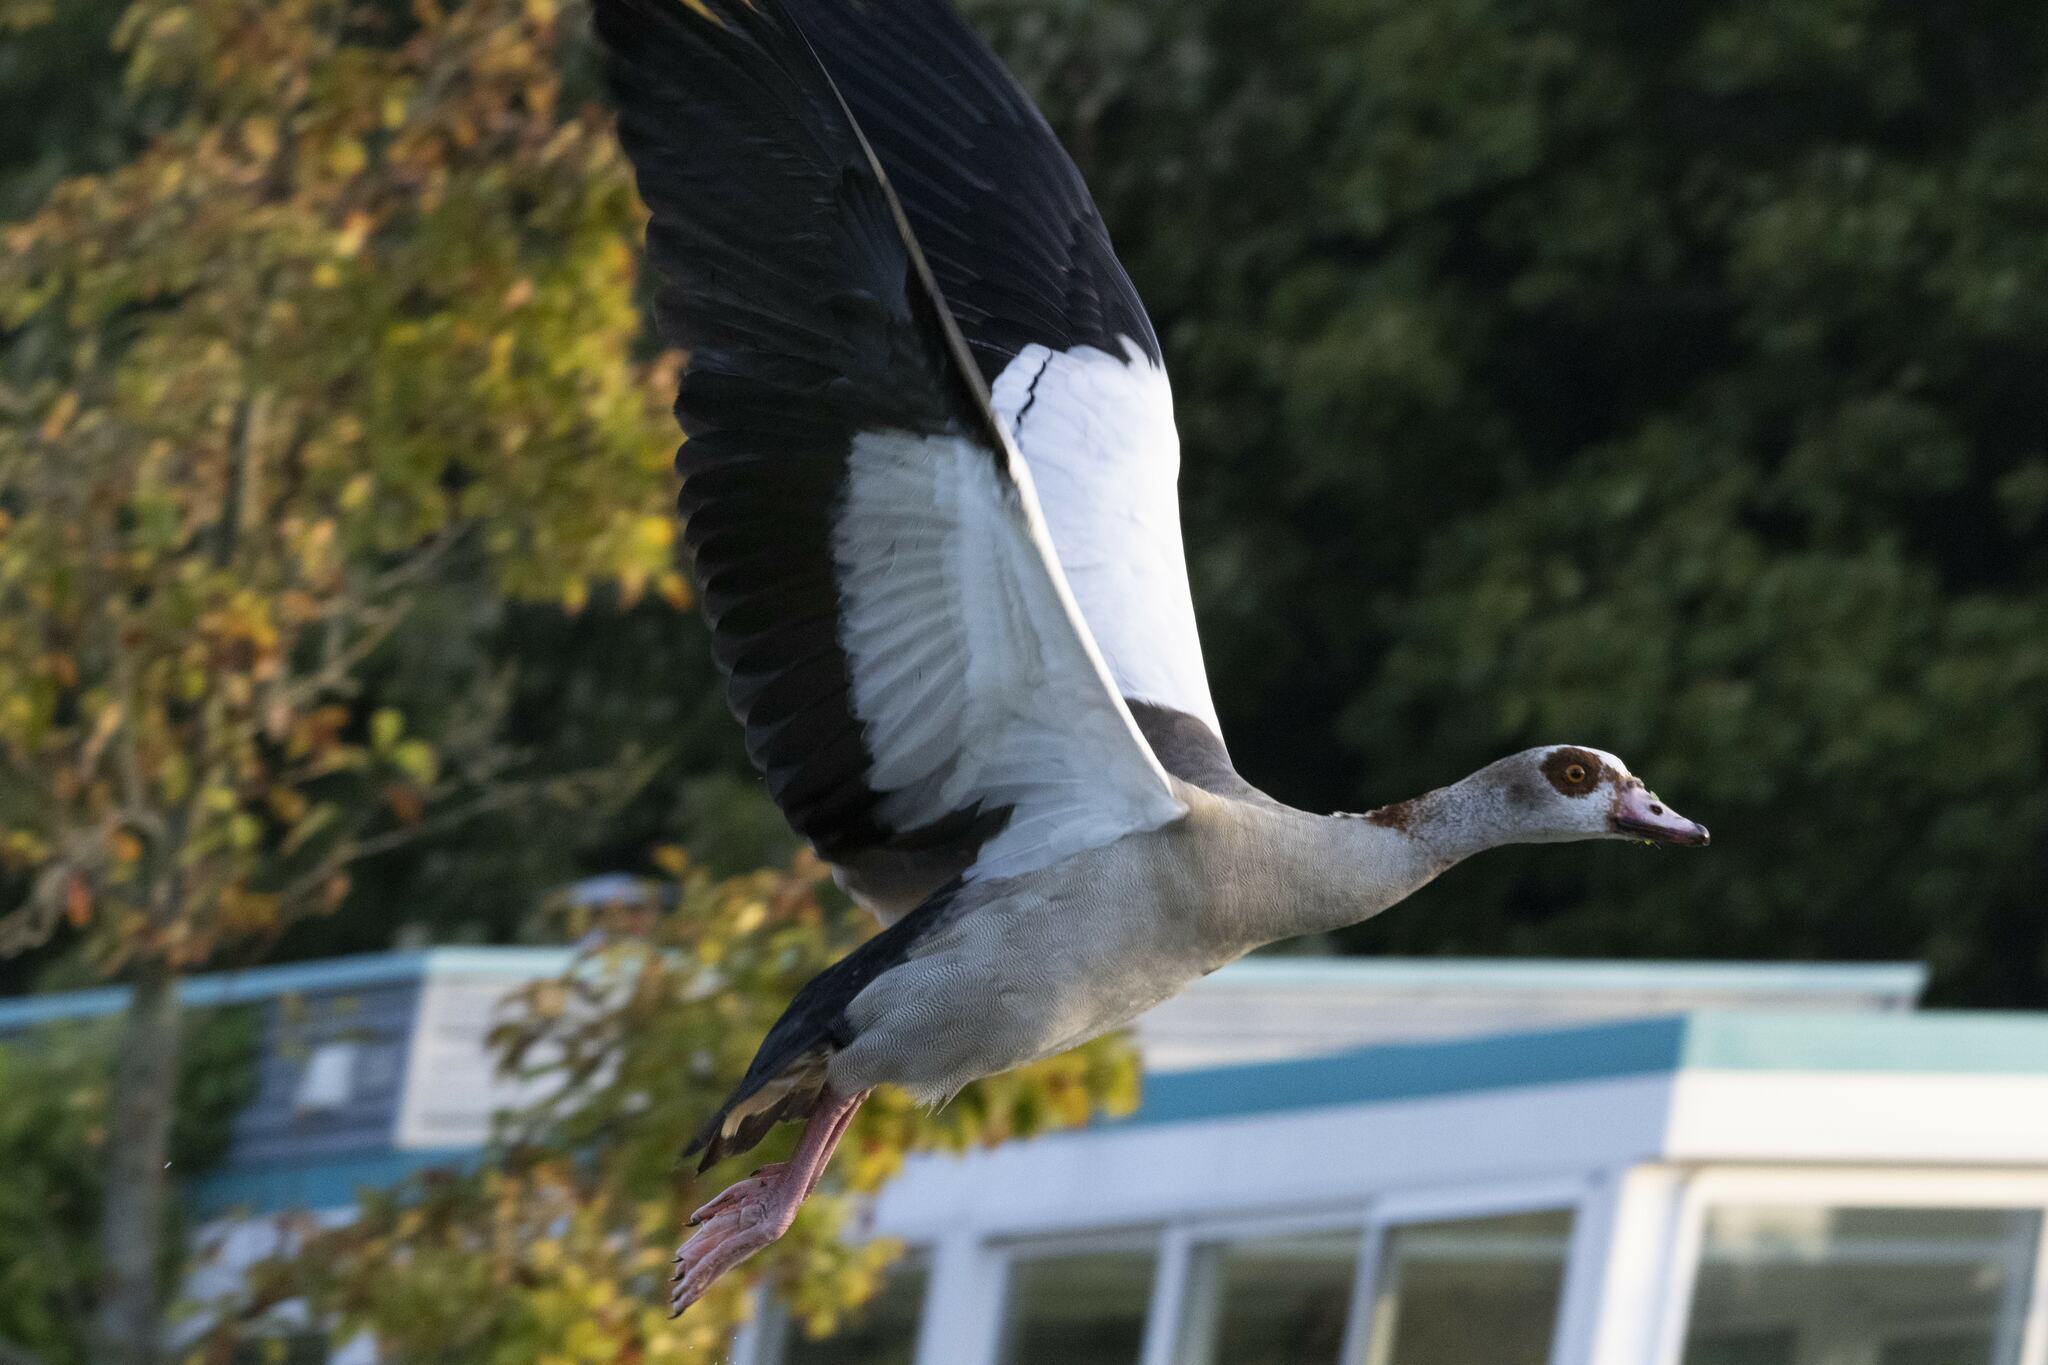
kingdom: Animalia
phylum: Chordata
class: Aves
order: Anseriformes
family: Anatidae
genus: Alopochen
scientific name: Alopochen aegyptiaca
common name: Egyptian goose
